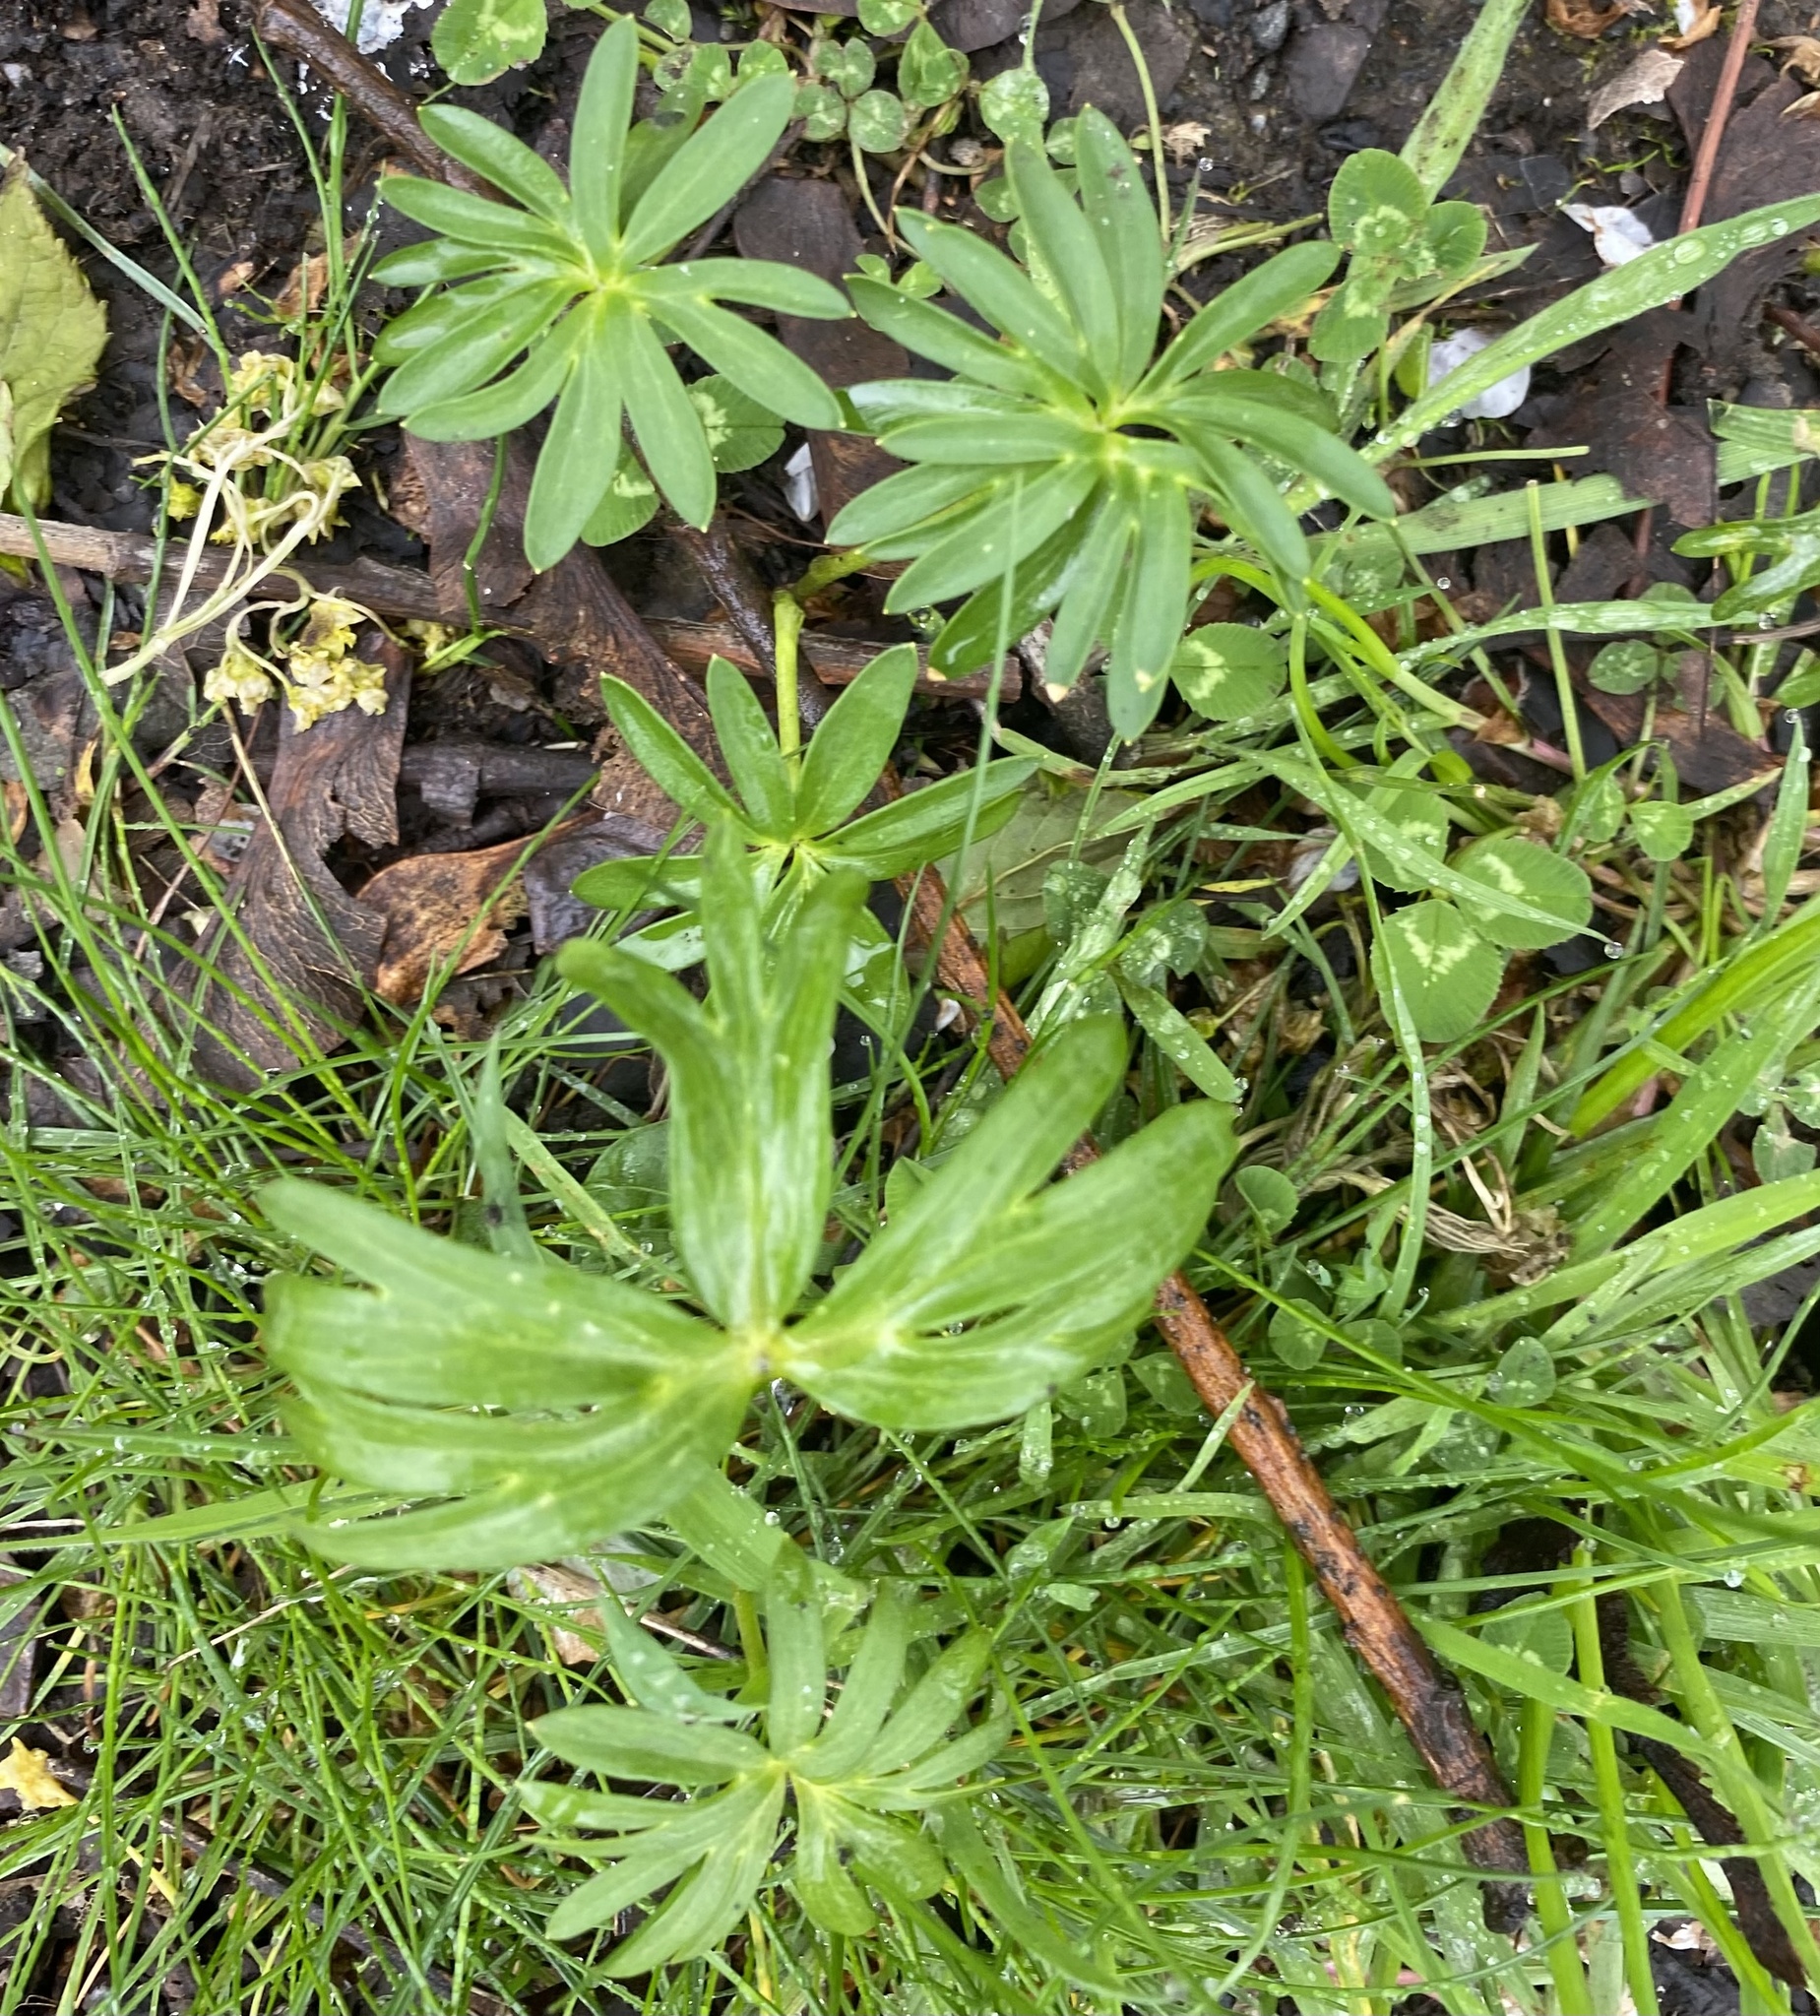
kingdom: Plantae
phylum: Tracheophyta
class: Magnoliopsida
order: Ranunculales
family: Ranunculaceae
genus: Eranthis
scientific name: Eranthis hyemalis
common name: Winter aconite
